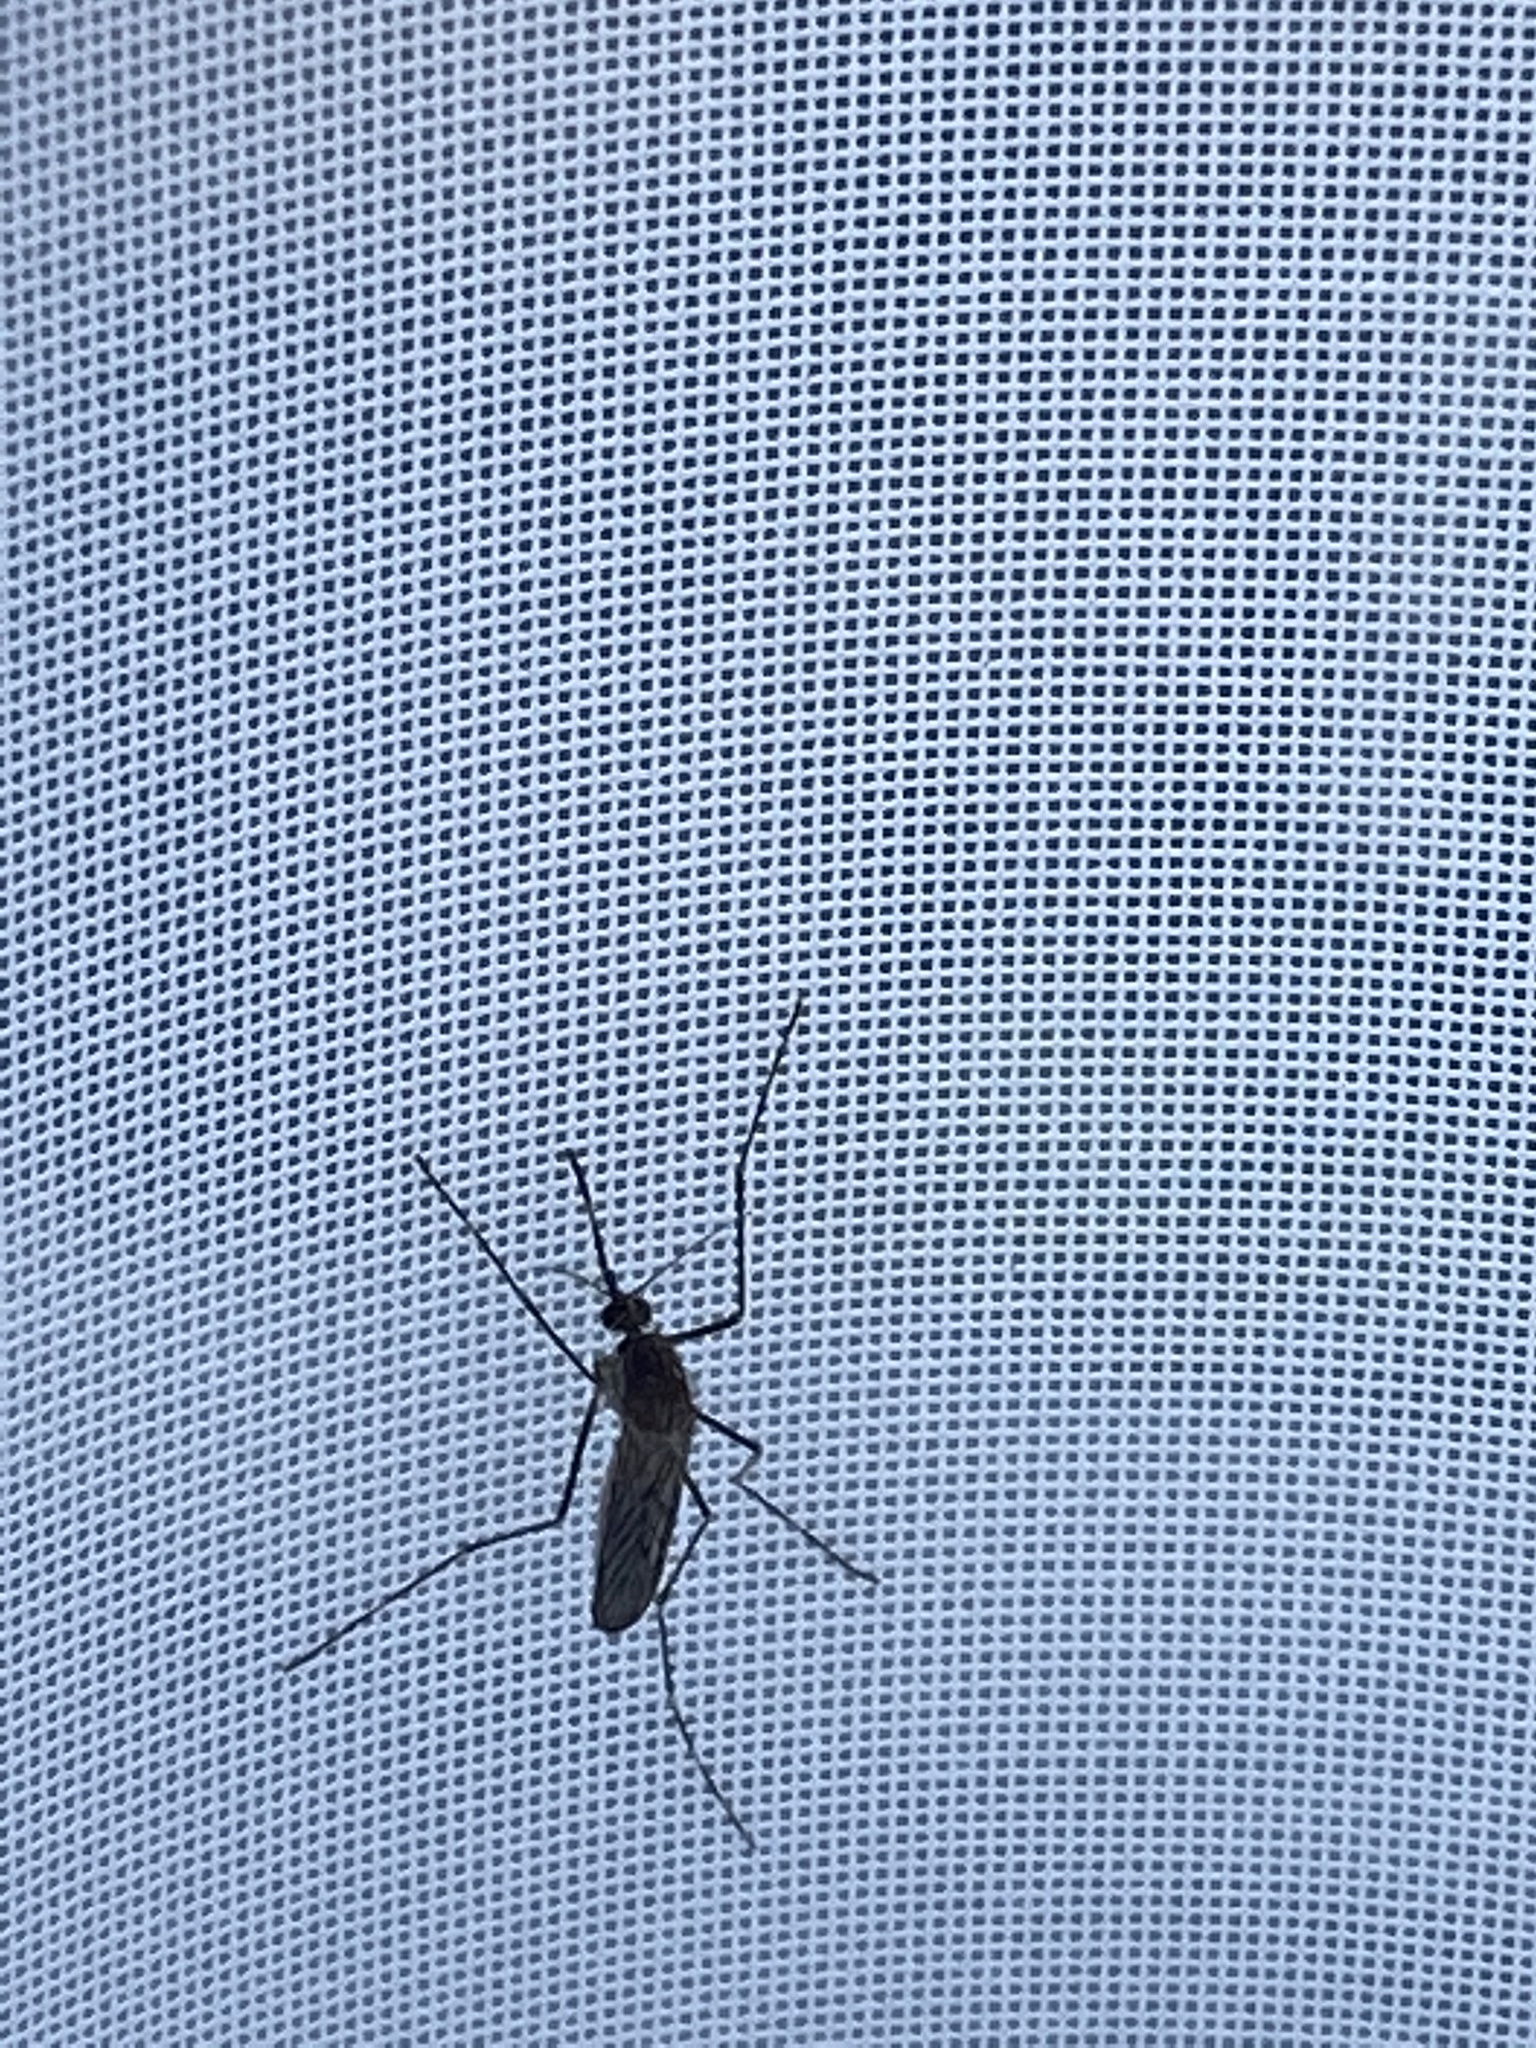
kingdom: Animalia
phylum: Arthropoda
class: Insecta
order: Diptera
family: Culicidae
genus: Culiseta
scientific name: Culiseta incidens
